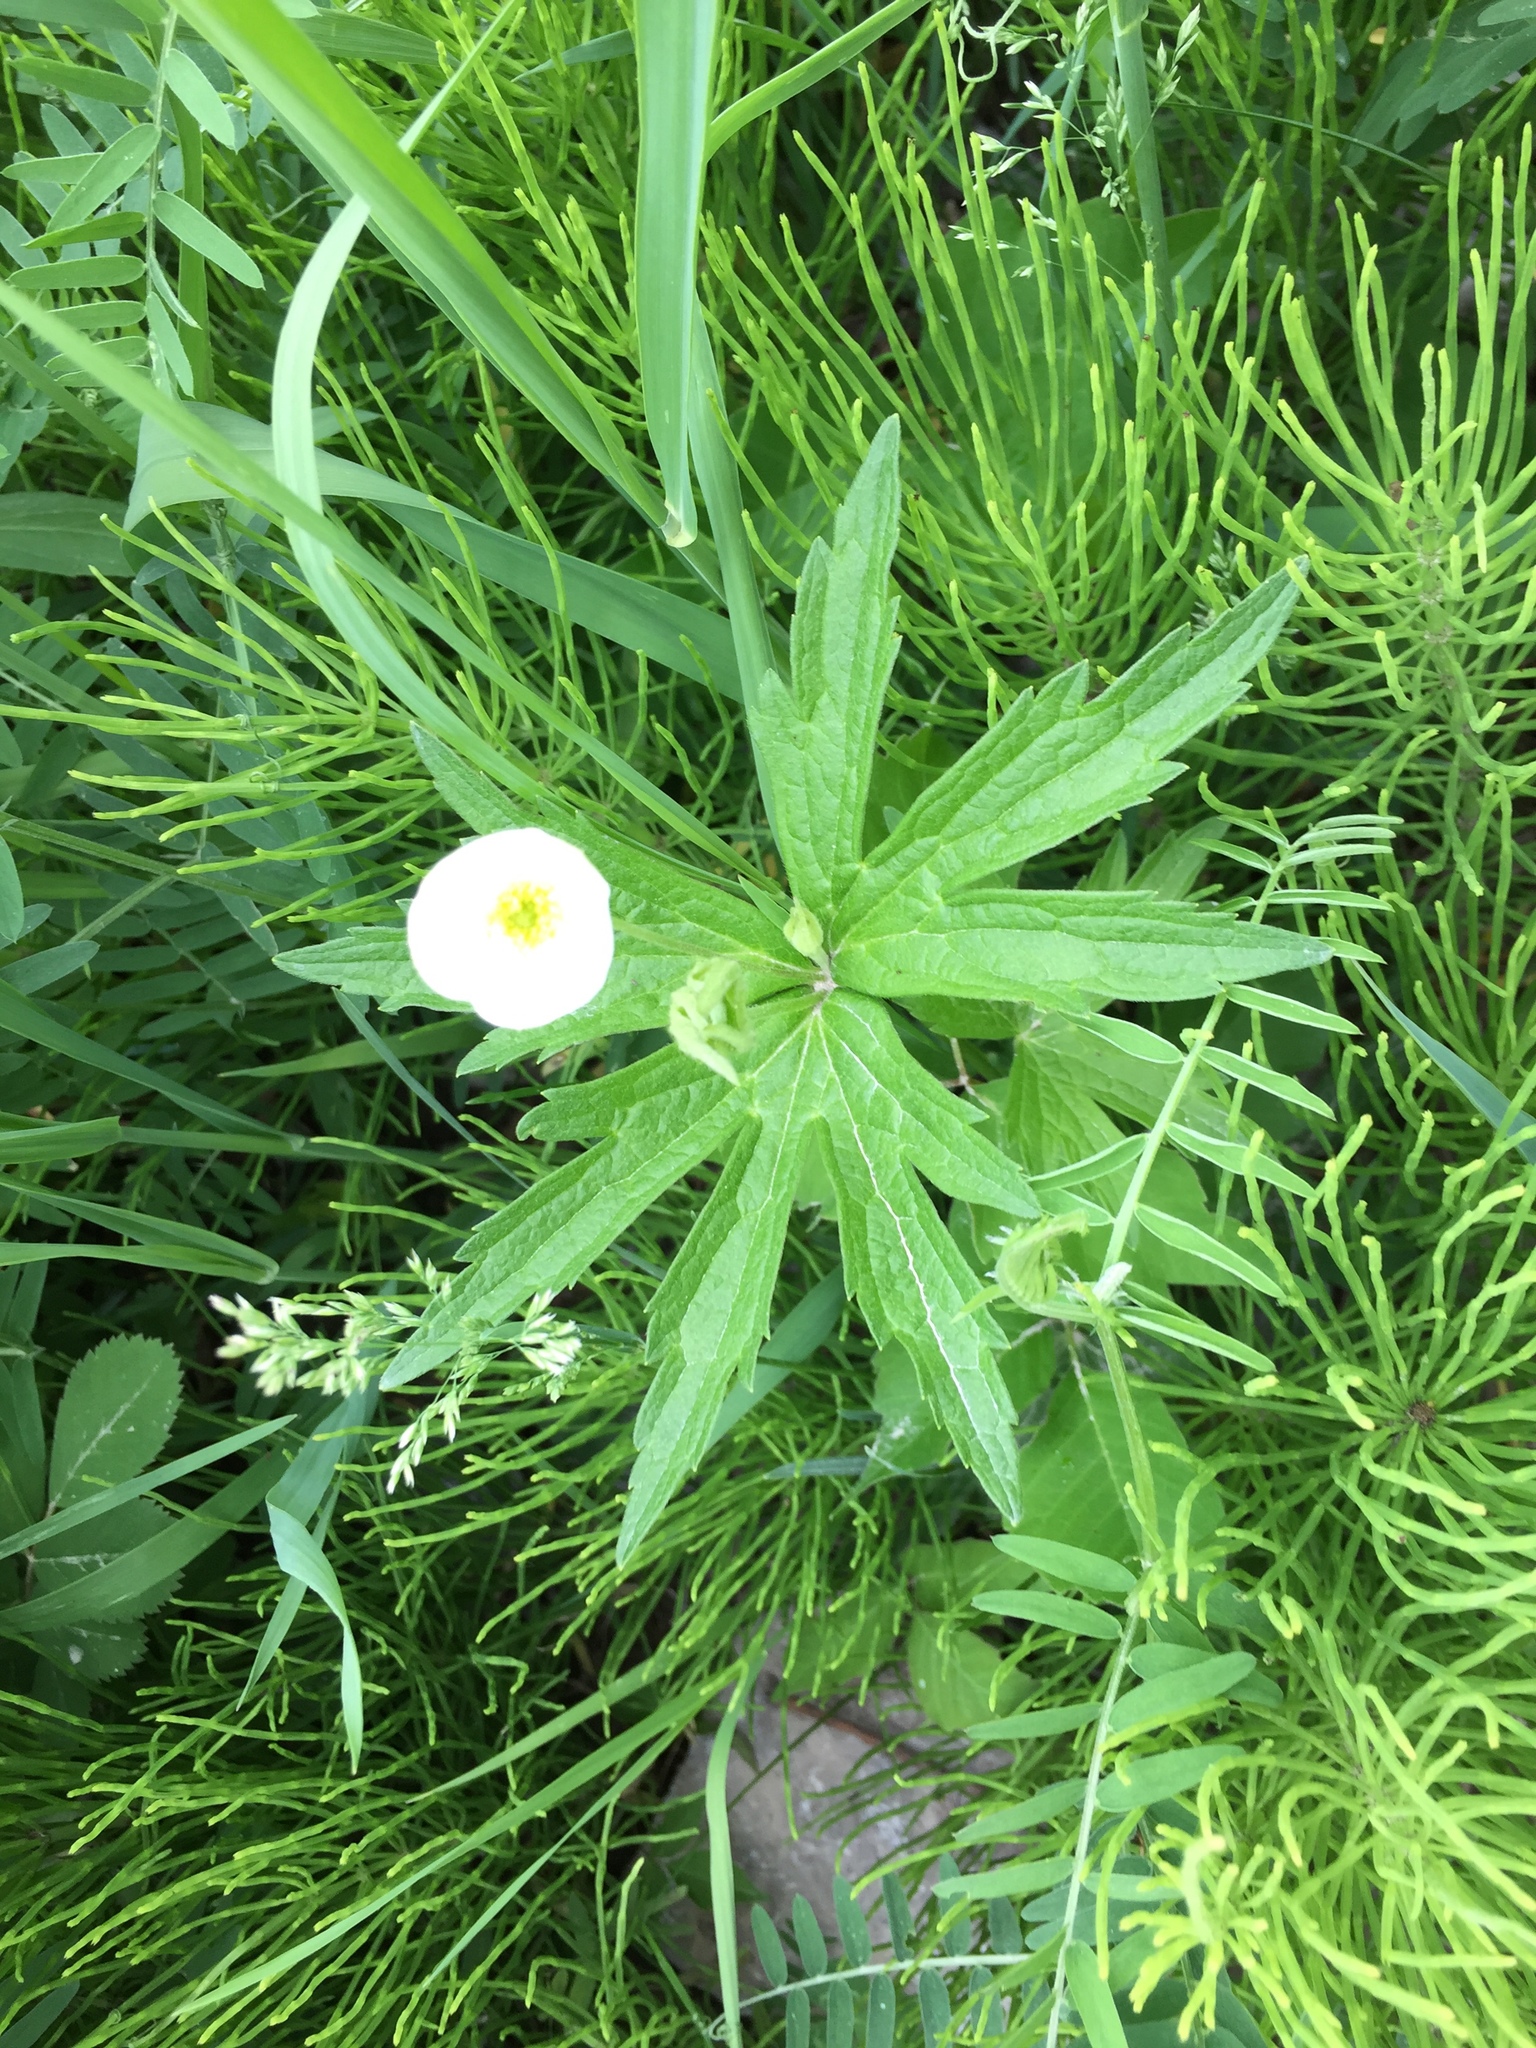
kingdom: Plantae
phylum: Tracheophyta
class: Magnoliopsida
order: Ranunculales
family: Ranunculaceae
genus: Anemonastrum
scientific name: Anemonastrum canadense
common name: Canada anemone
